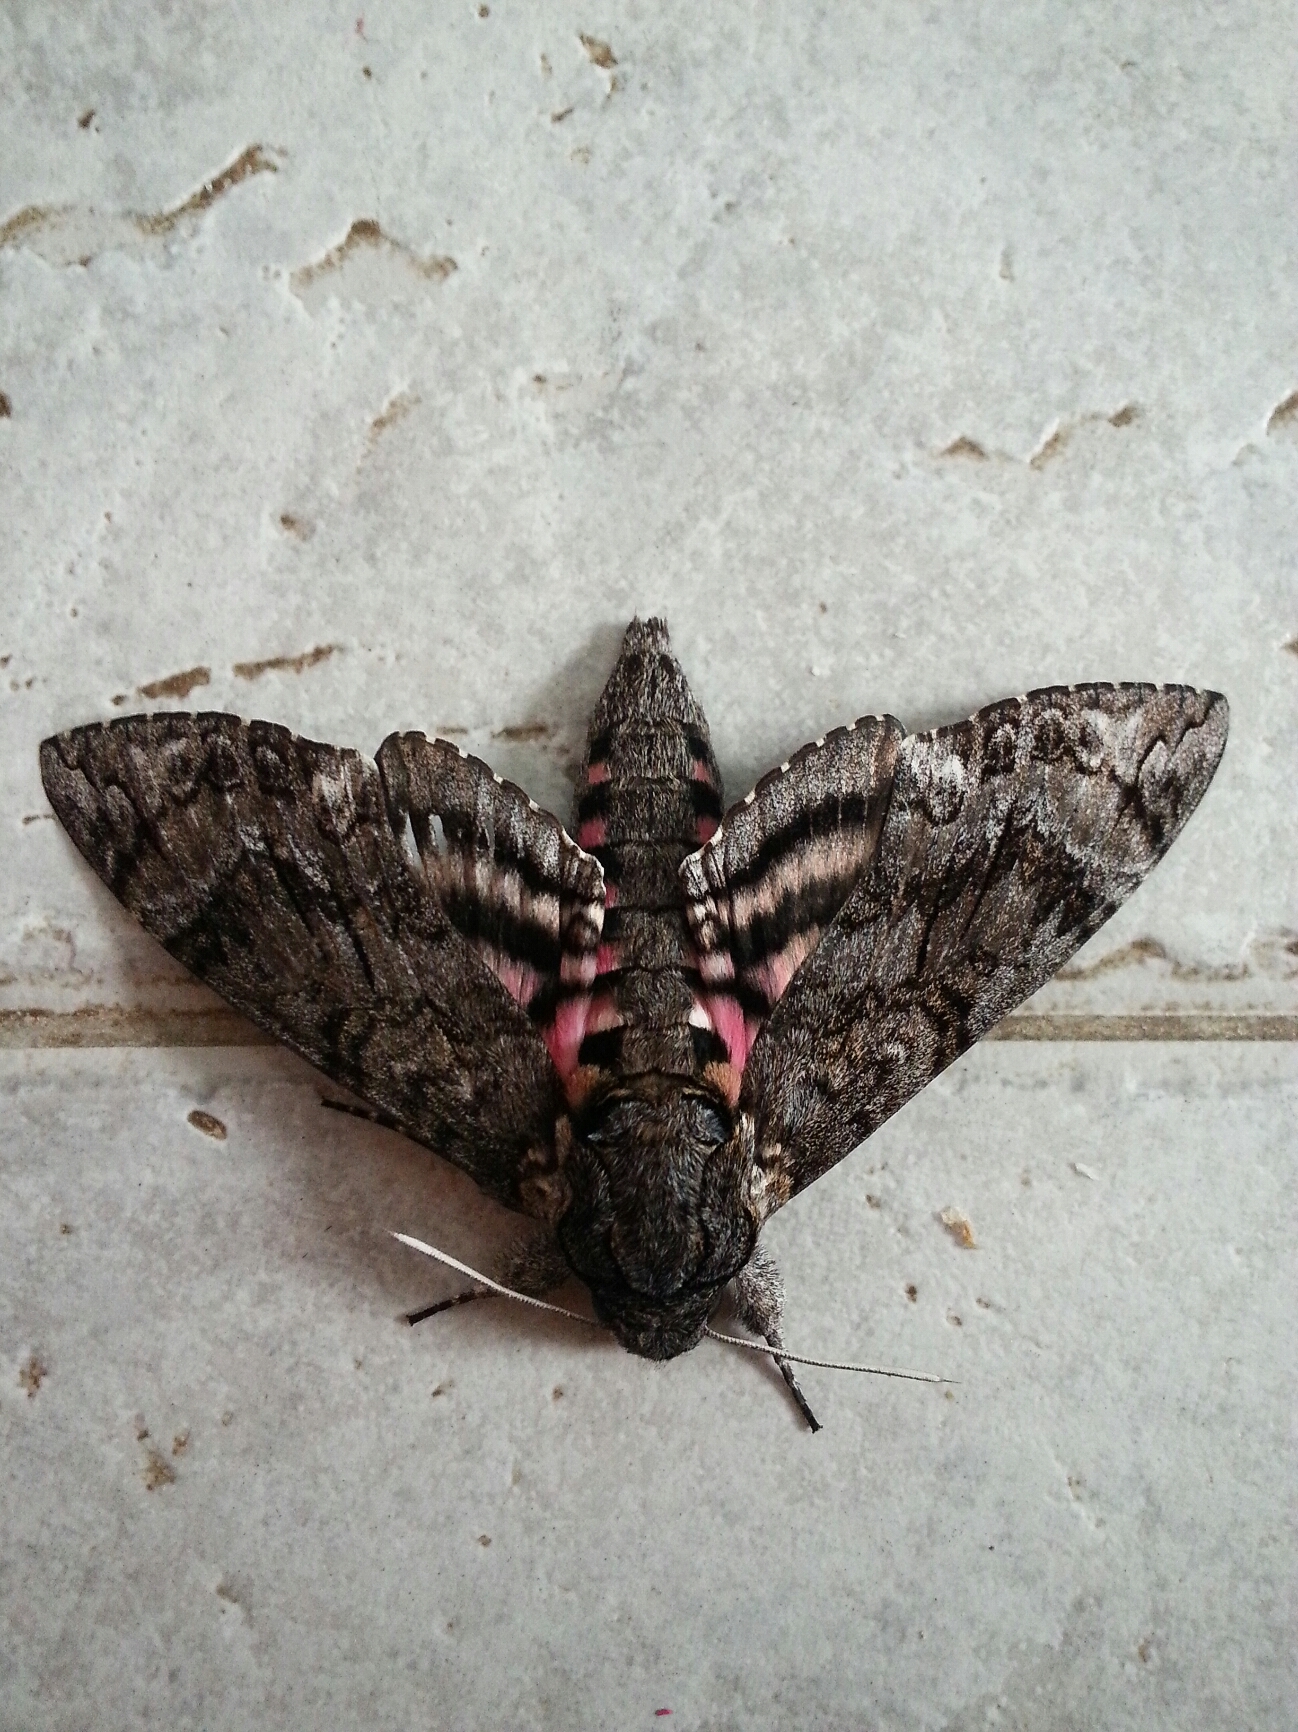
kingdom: Animalia
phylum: Arthropoda
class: Insecta
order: Lepidoptera
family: Sphingidae
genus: Agrius
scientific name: Agrius cingulata
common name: Pink-spotted hawkmoth
